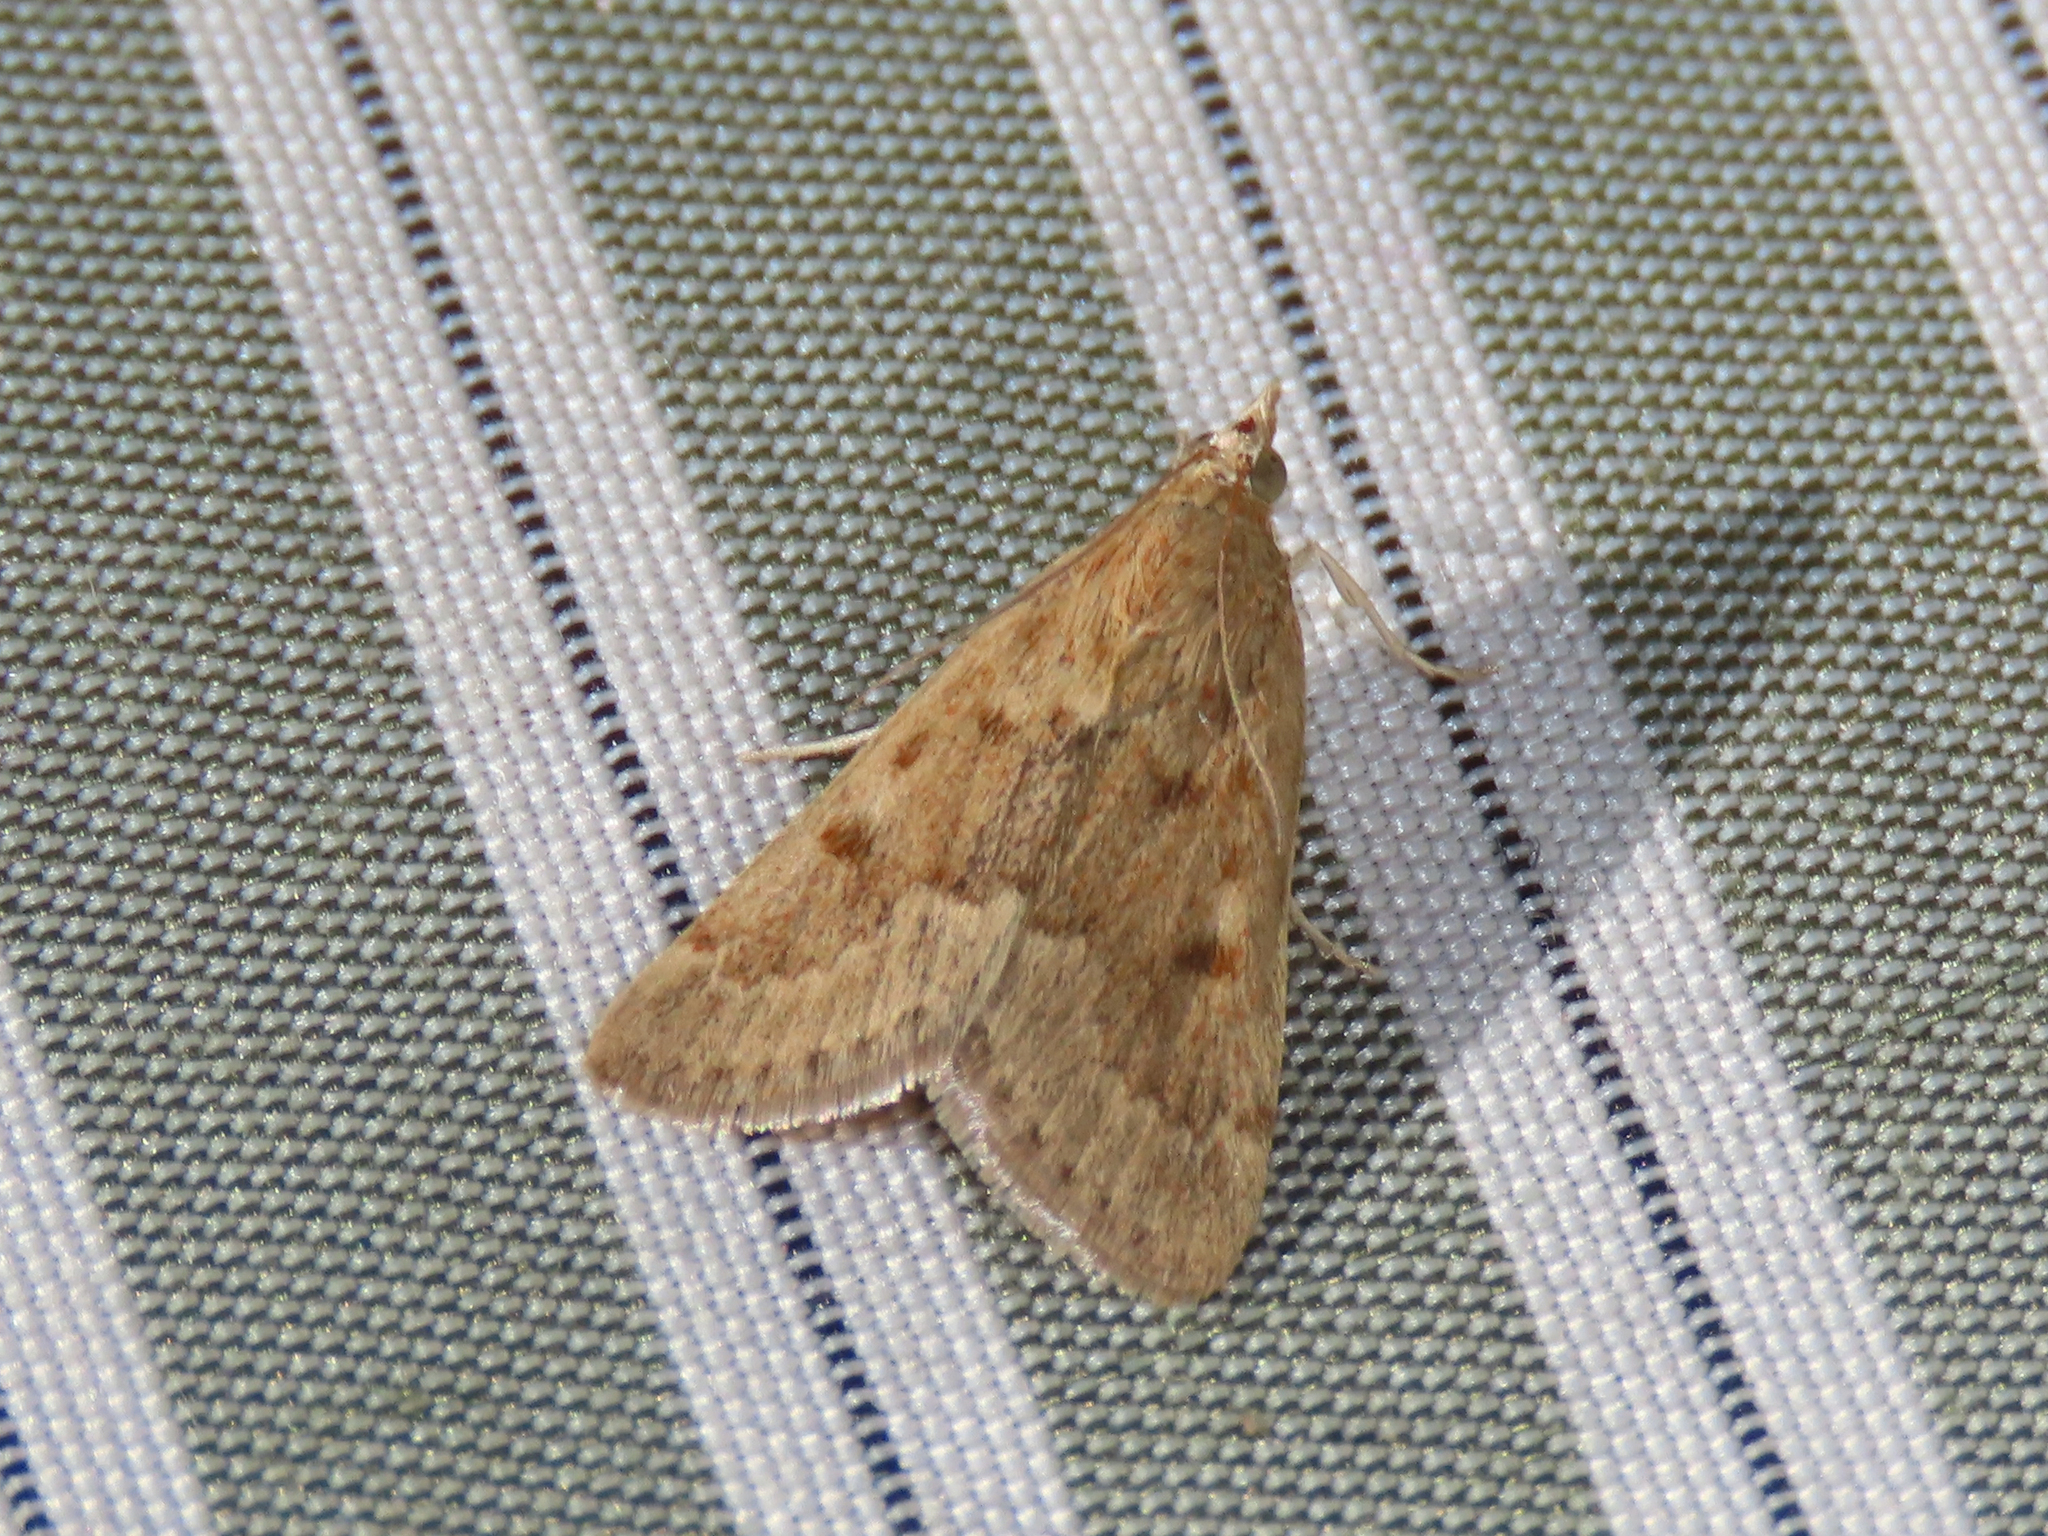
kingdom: Animalia
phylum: Arthropoda
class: Insecta
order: Lepidoptera
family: Crambidae
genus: Achyra
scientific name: Achyra rantalis
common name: Garden webworm
